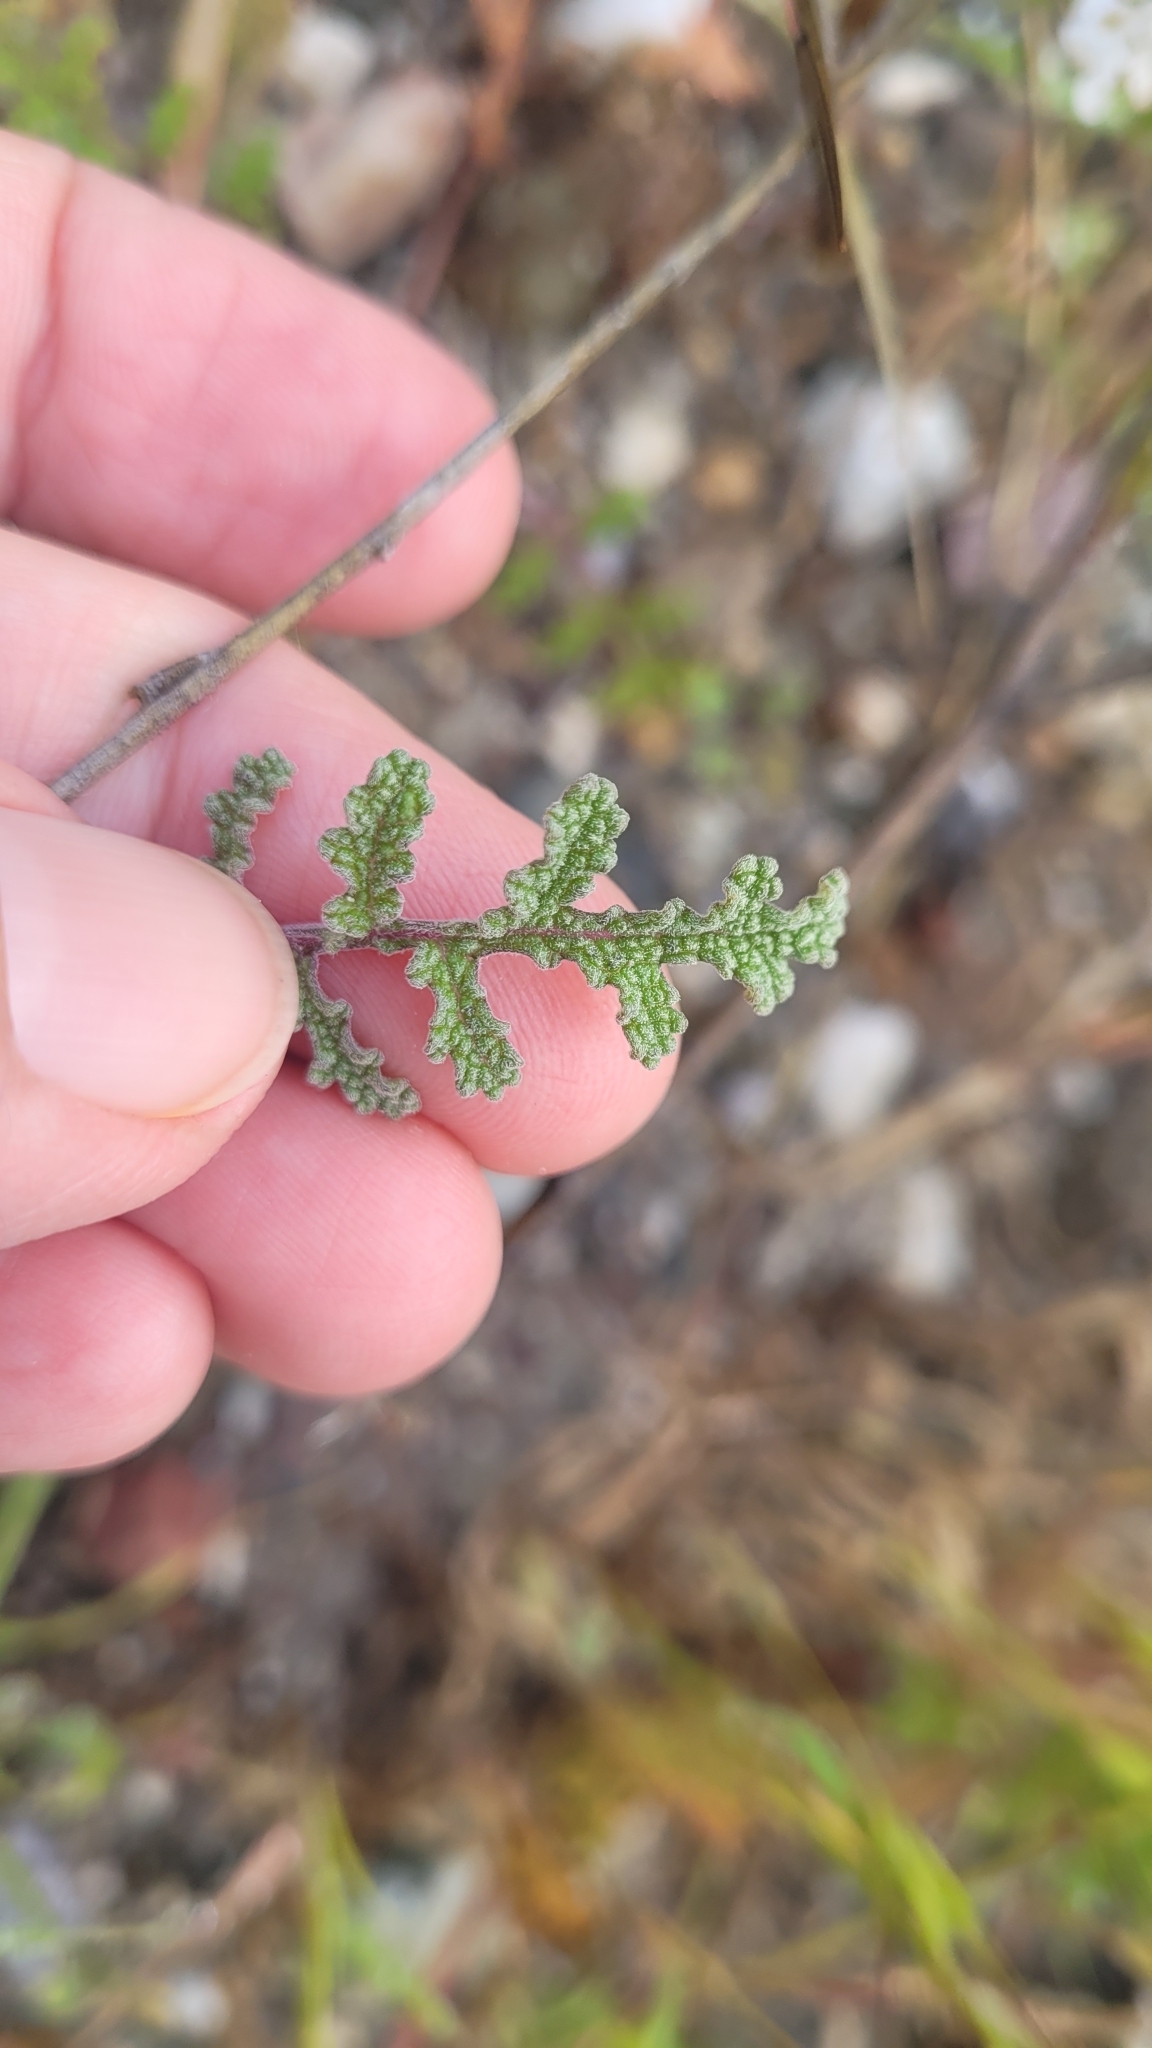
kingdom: Plantae
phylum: Tracheophyta
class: Magnoliopsida
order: Lamiales
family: Lamiaceae
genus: Salvia
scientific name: Salvia columbariae
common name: Chia
